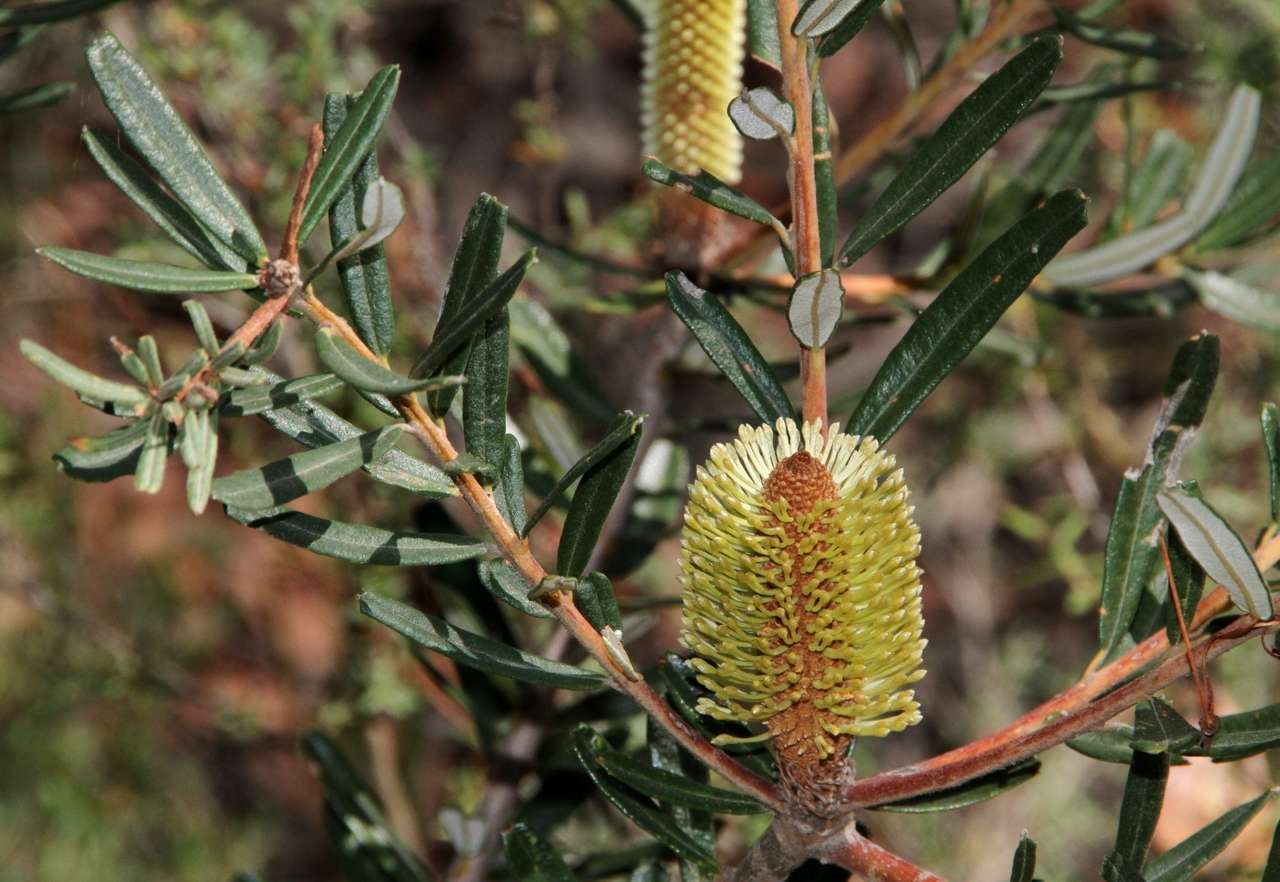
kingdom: Plantae
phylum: Tracheophyta
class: Magnoliopsida
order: Proteales
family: Proteaceae
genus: Banksia
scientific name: Banksia marginata
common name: Silver banksia
